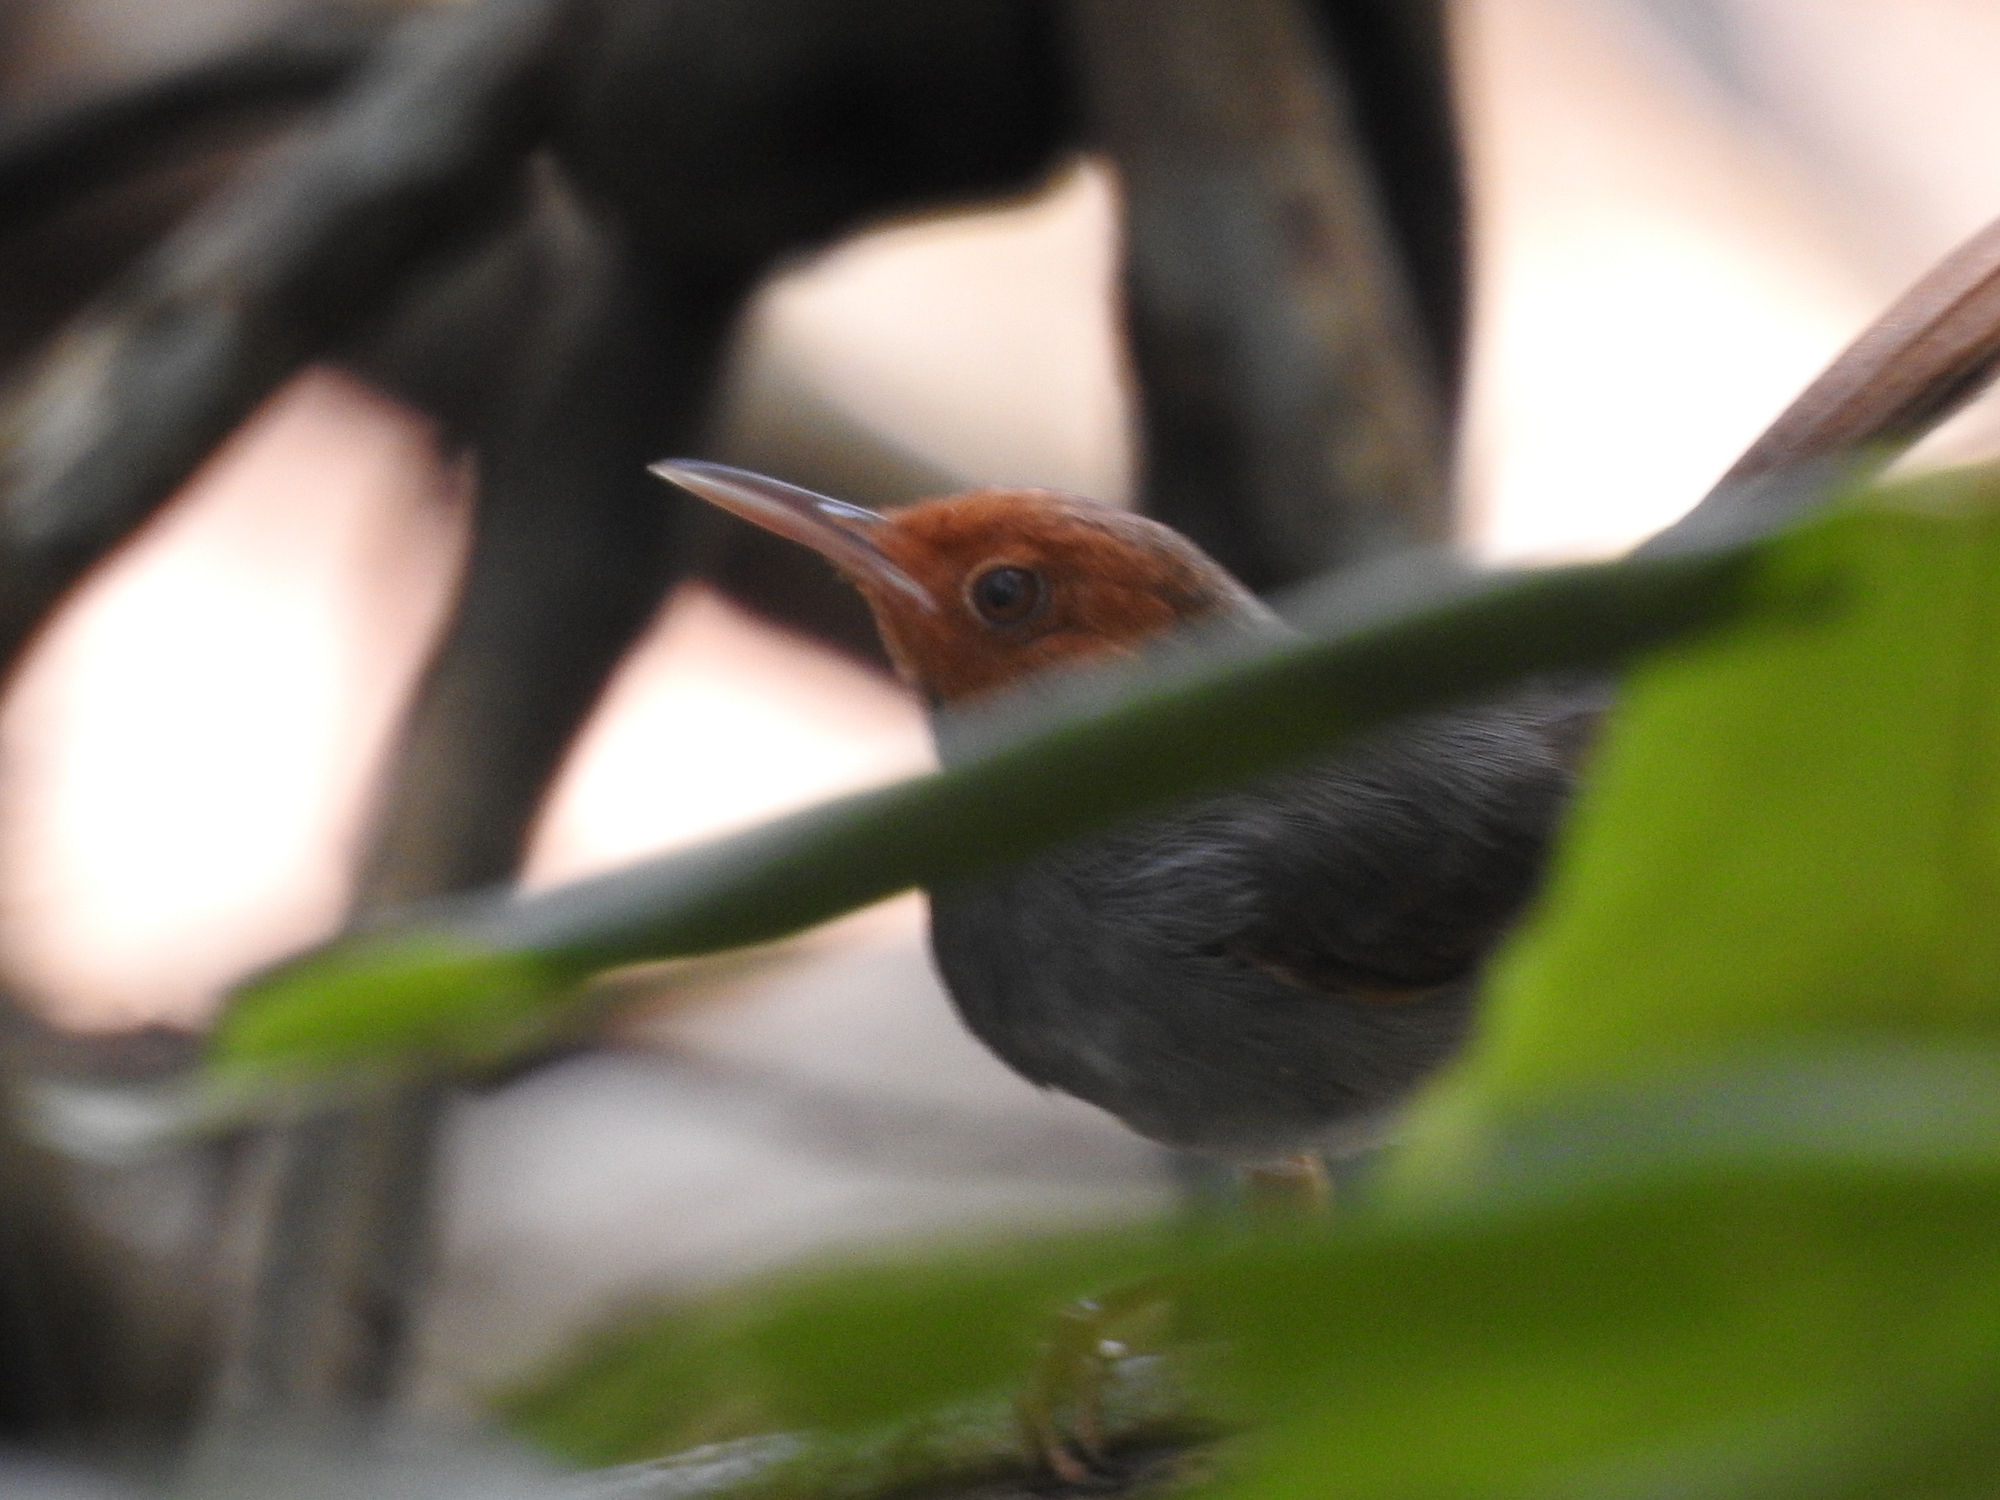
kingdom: Animalia
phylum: Chordata
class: Aves
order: Passeriformes
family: Cisticolidae
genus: Orthotomus
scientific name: Orthotomus ruficeps
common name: Ashy tailorbird
